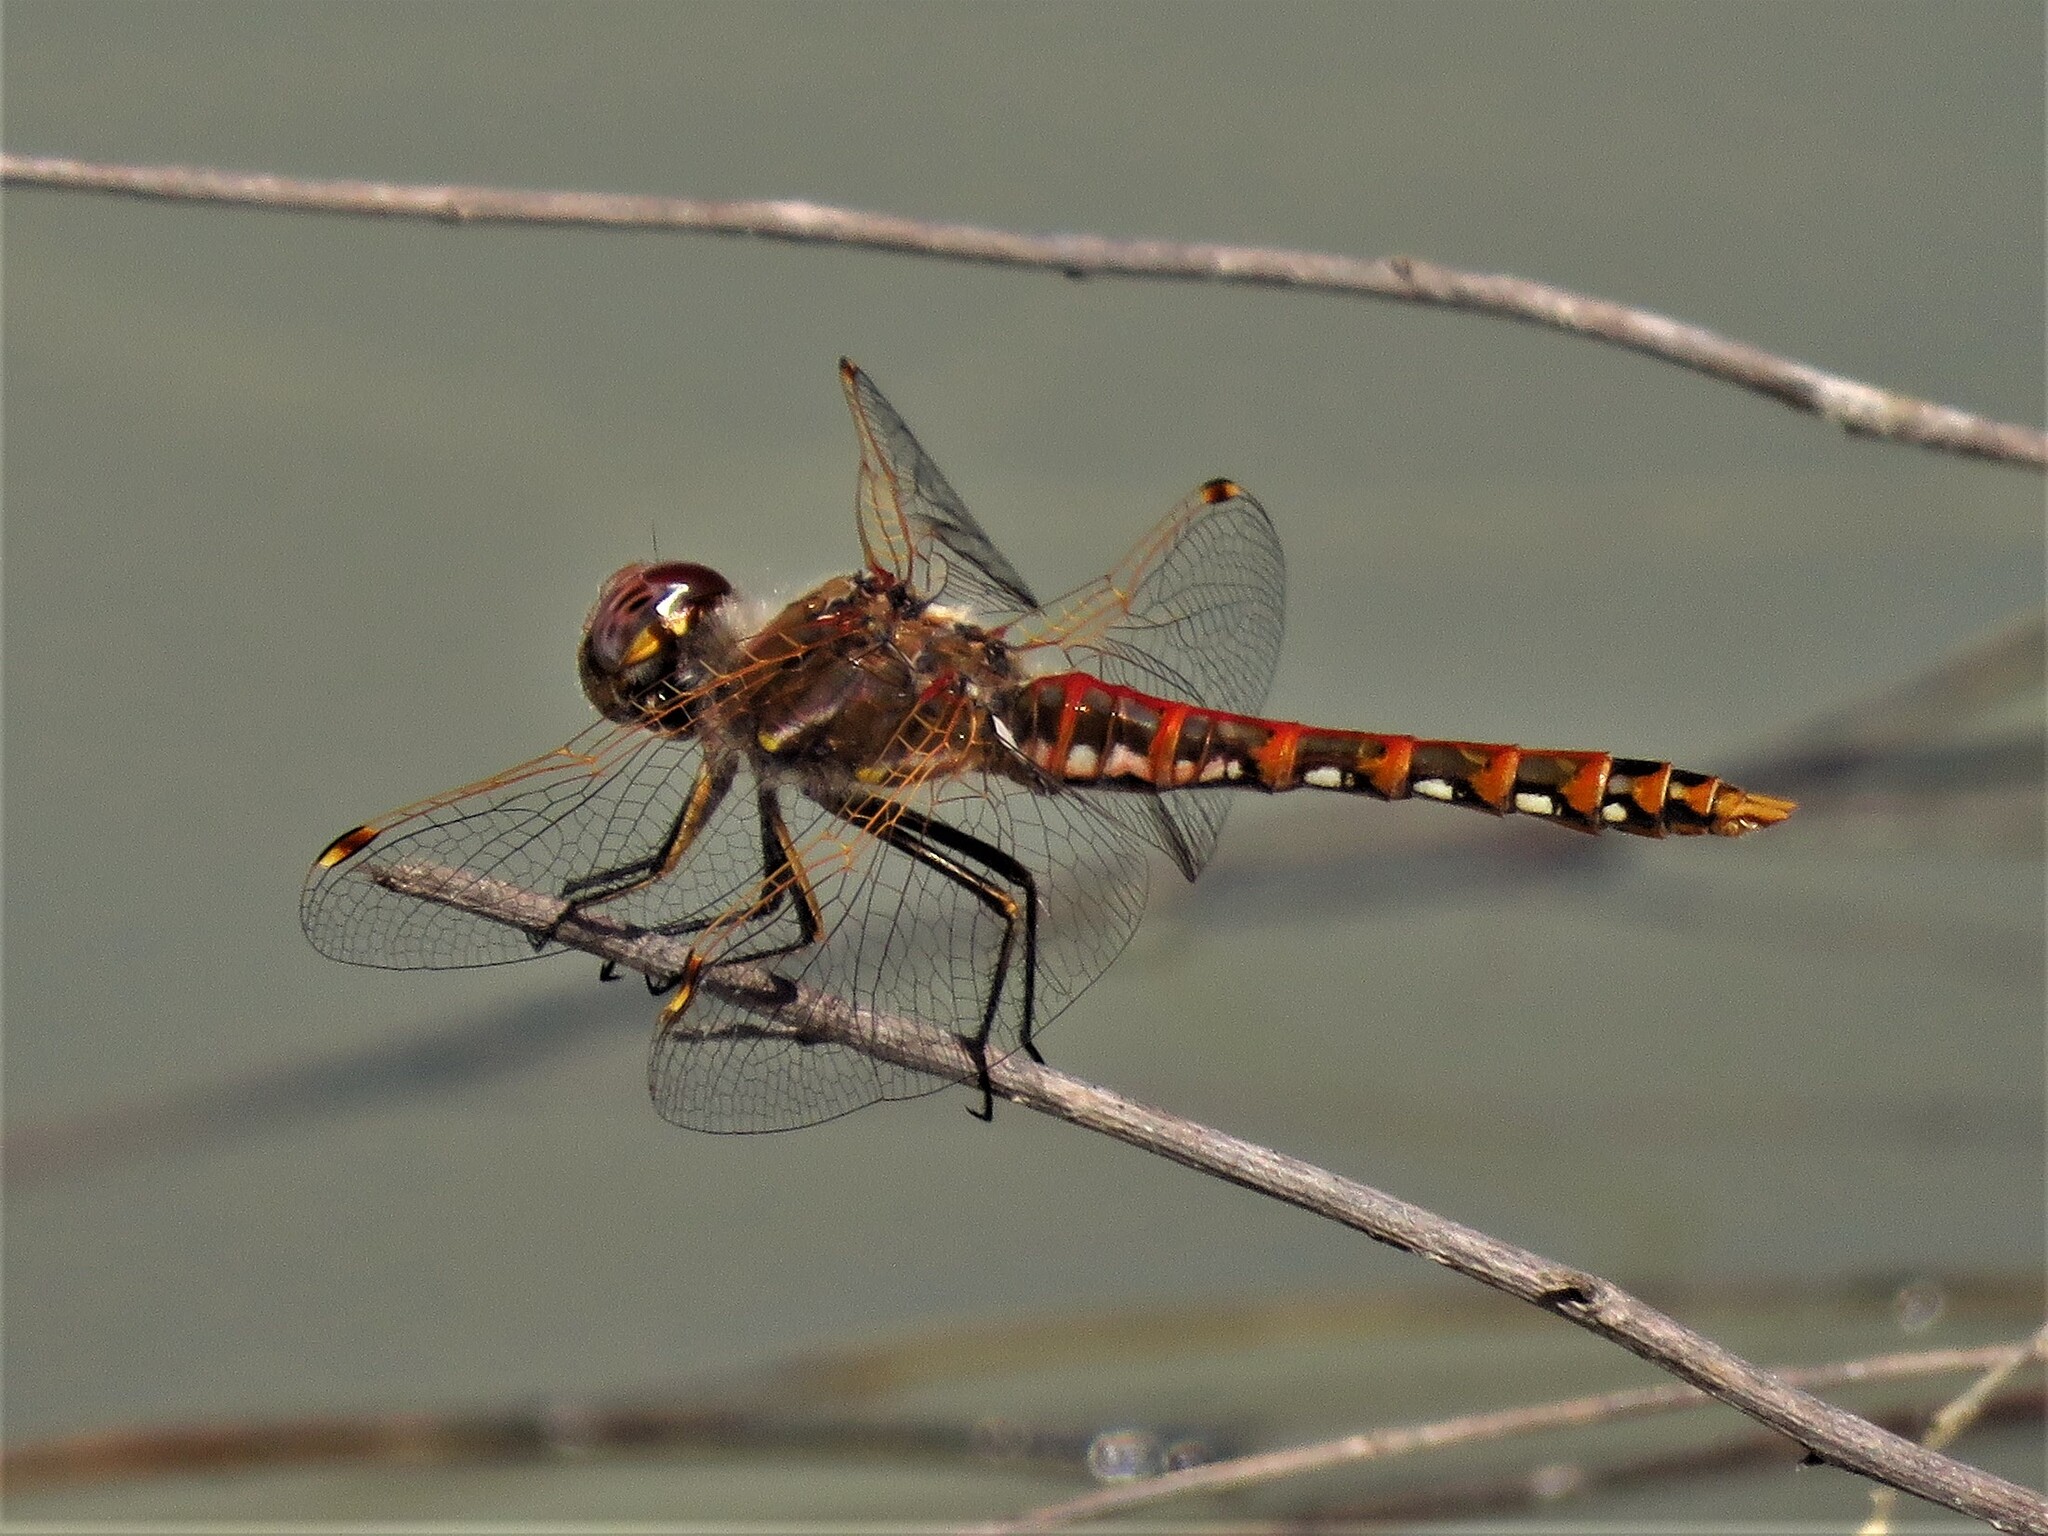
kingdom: Animalia
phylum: Arthropoda
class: Insecta
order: Odonata
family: Libellulidae
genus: Sympetrum
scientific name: Sympetrum corruptum
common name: Variegated meadowhawk
